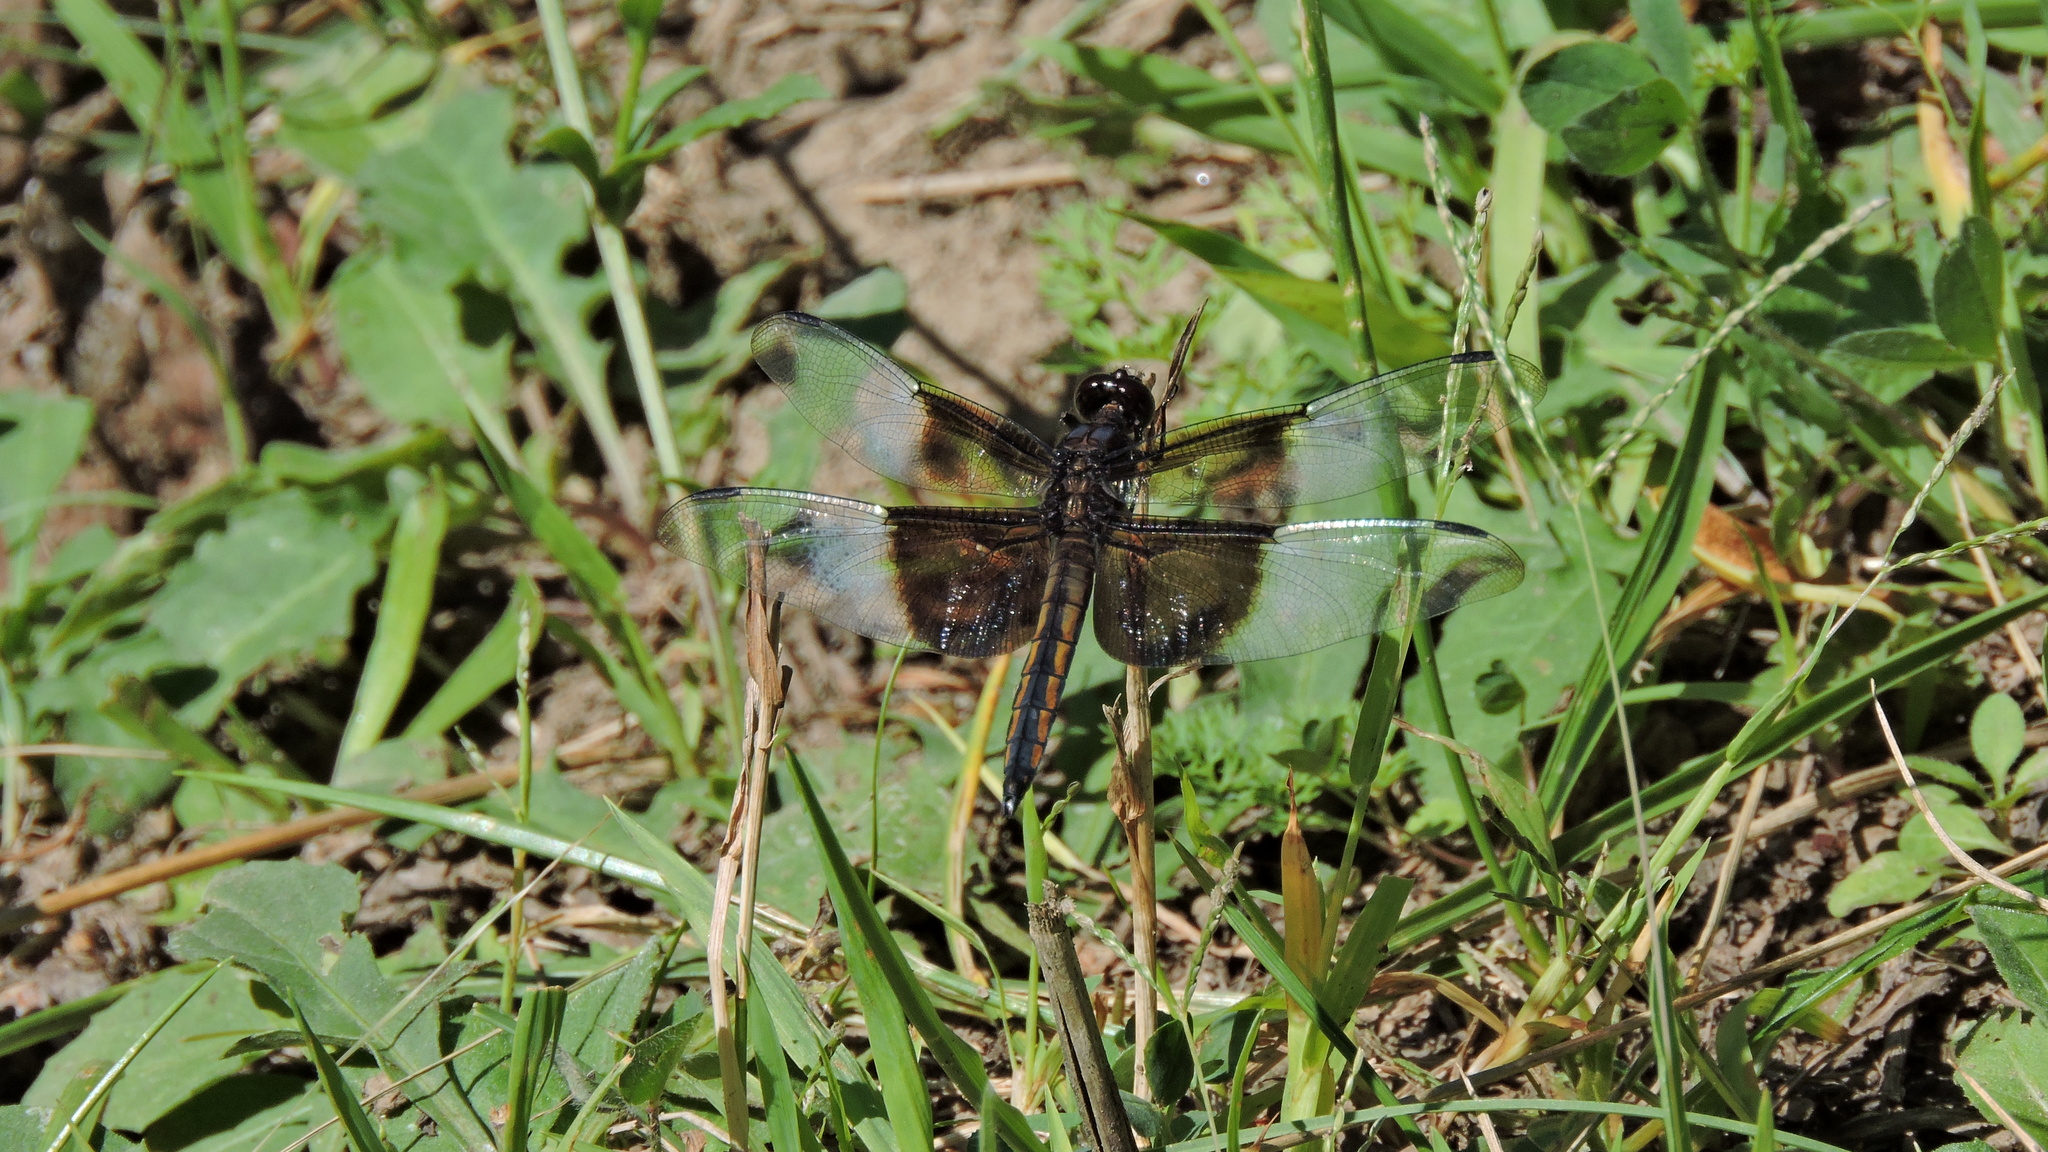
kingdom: Animalia
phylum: Arthropoda
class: Insecta
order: Odonata
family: Libellulidae
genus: Libellula
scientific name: Libellula luctuosa
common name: Widow skimmer
